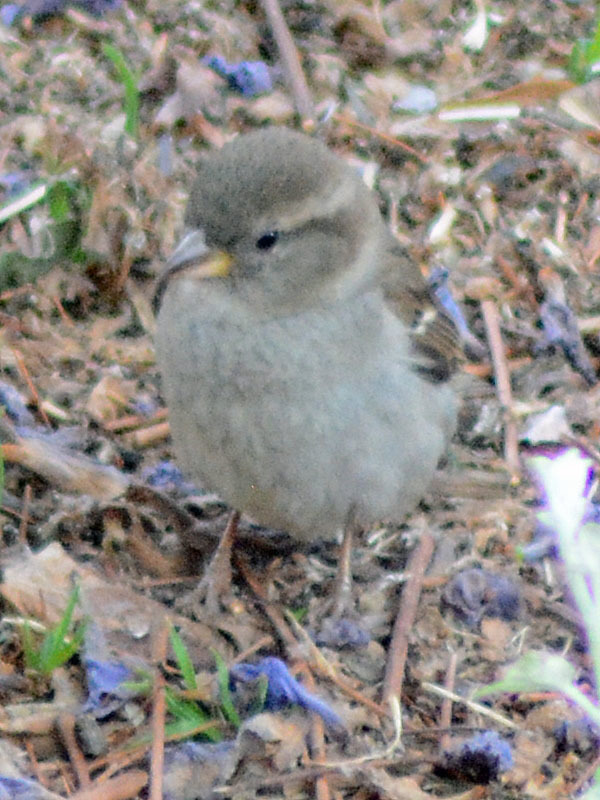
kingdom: Animalia
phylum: Chordata
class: Aves
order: Passeriformes
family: Passeridae
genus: Passer
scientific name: Passer domesticus
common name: House sparrow
